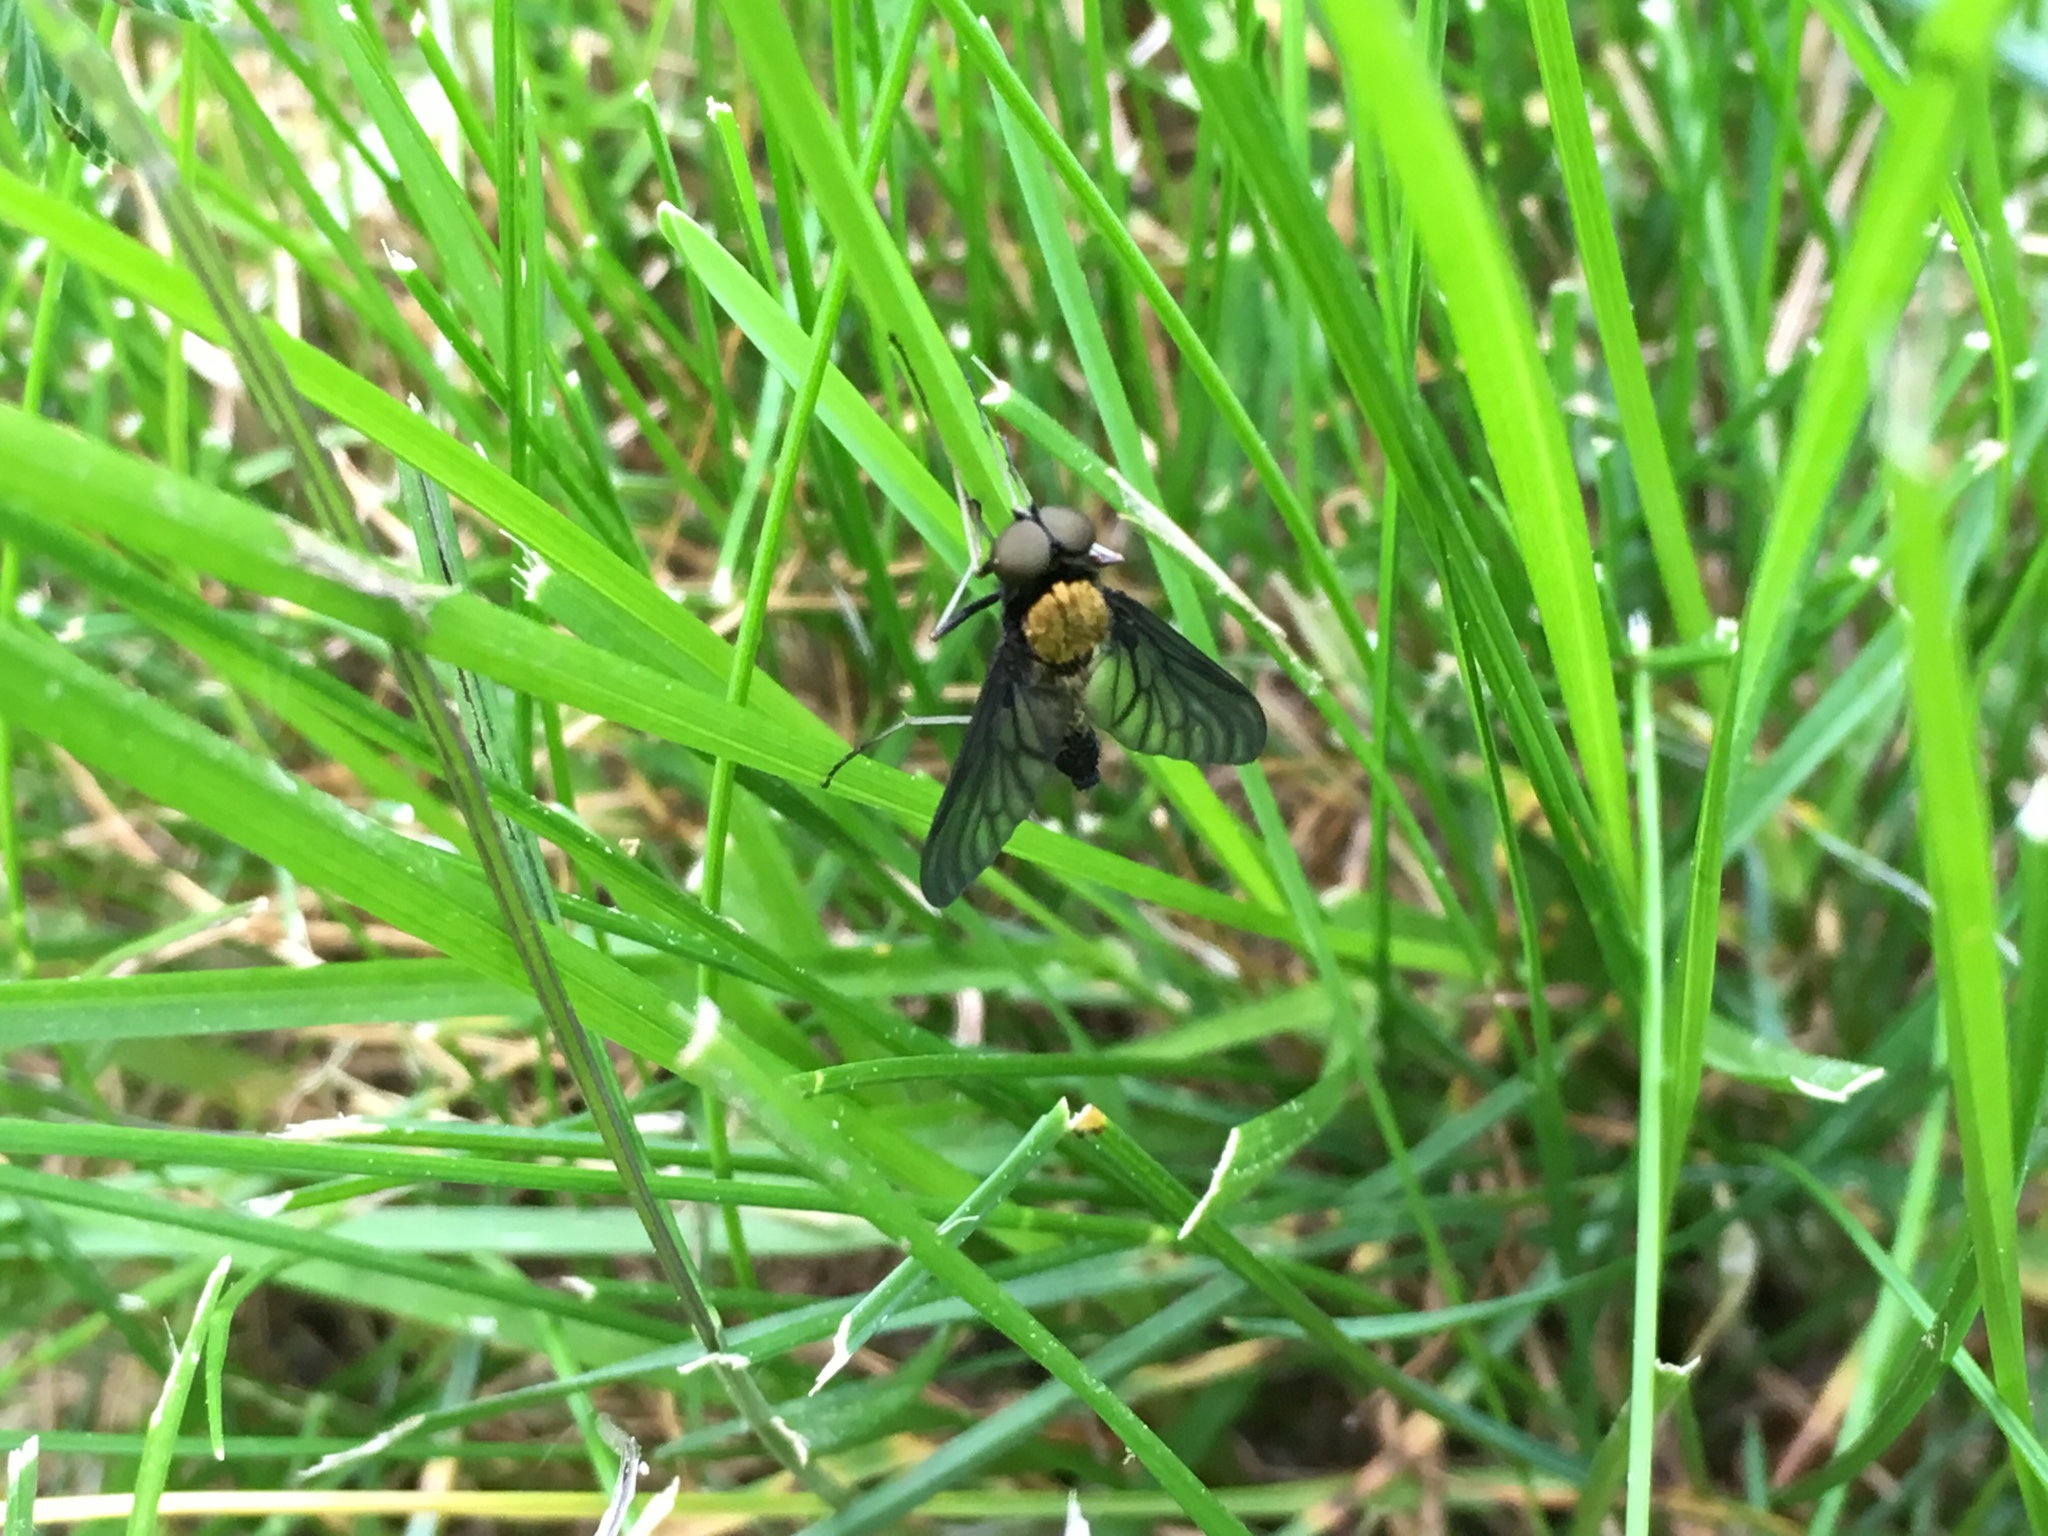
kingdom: Animalia
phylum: Arthropoda
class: Insecta
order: Diptera
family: Rhagionidae
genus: Chrysopilus
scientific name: Chrysopilus thoracicus
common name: Golden-backed snipe fly
